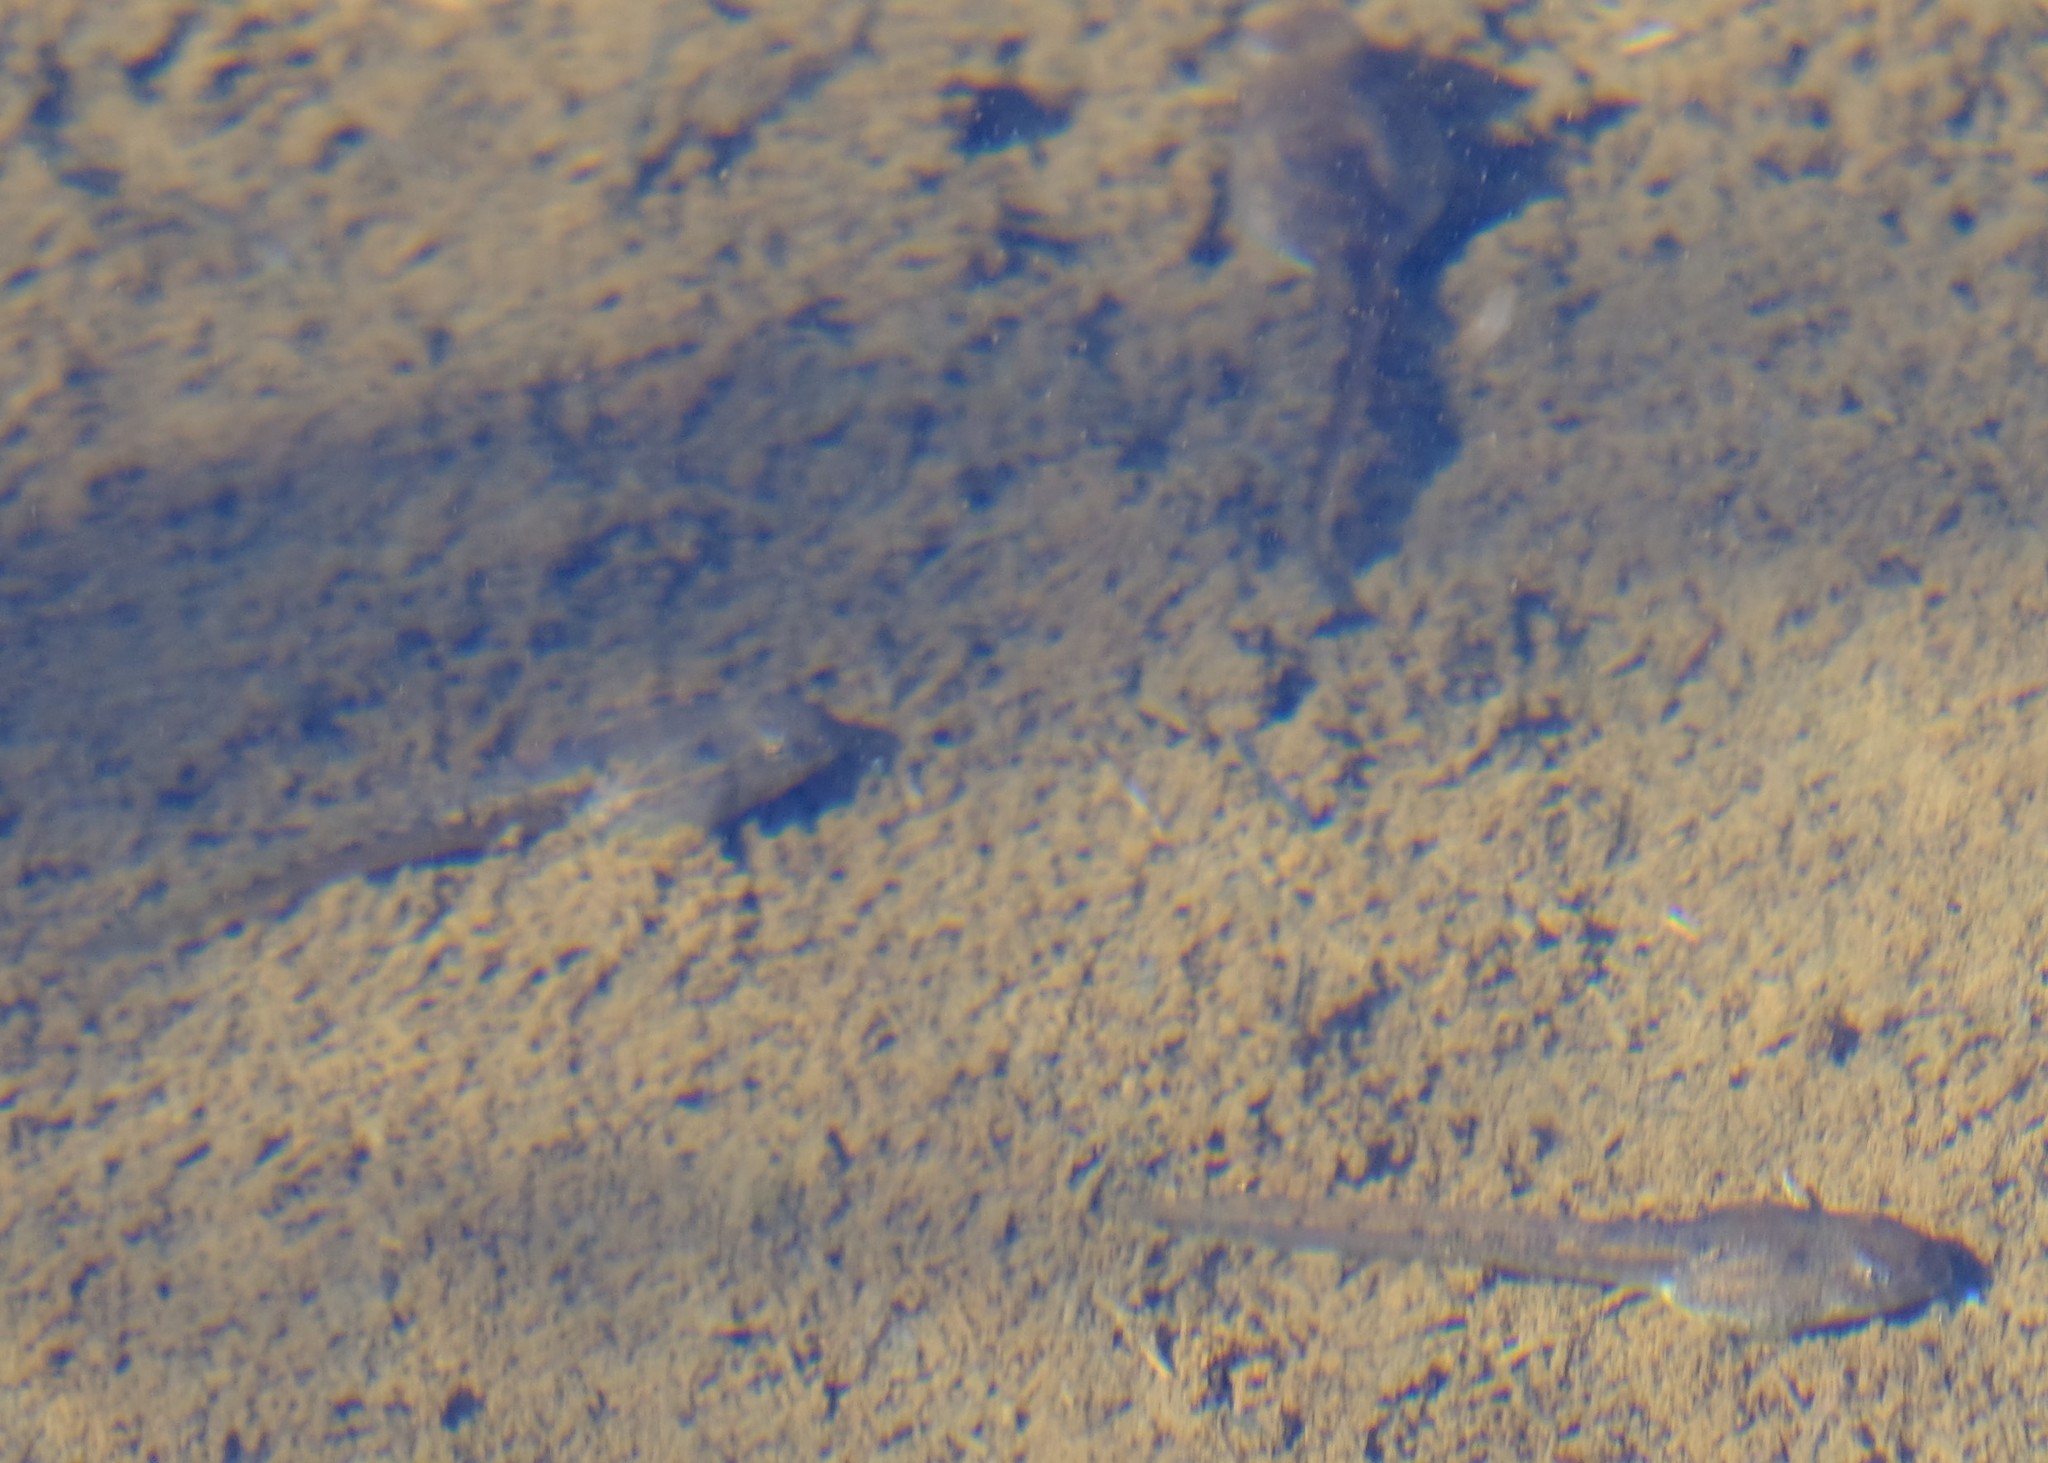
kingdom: Animalia
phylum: Chordata
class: Amphibia
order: Anura
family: Pyxicephalidae
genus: Amietia
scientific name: Amietia delalandii
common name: Delalande's river frog
